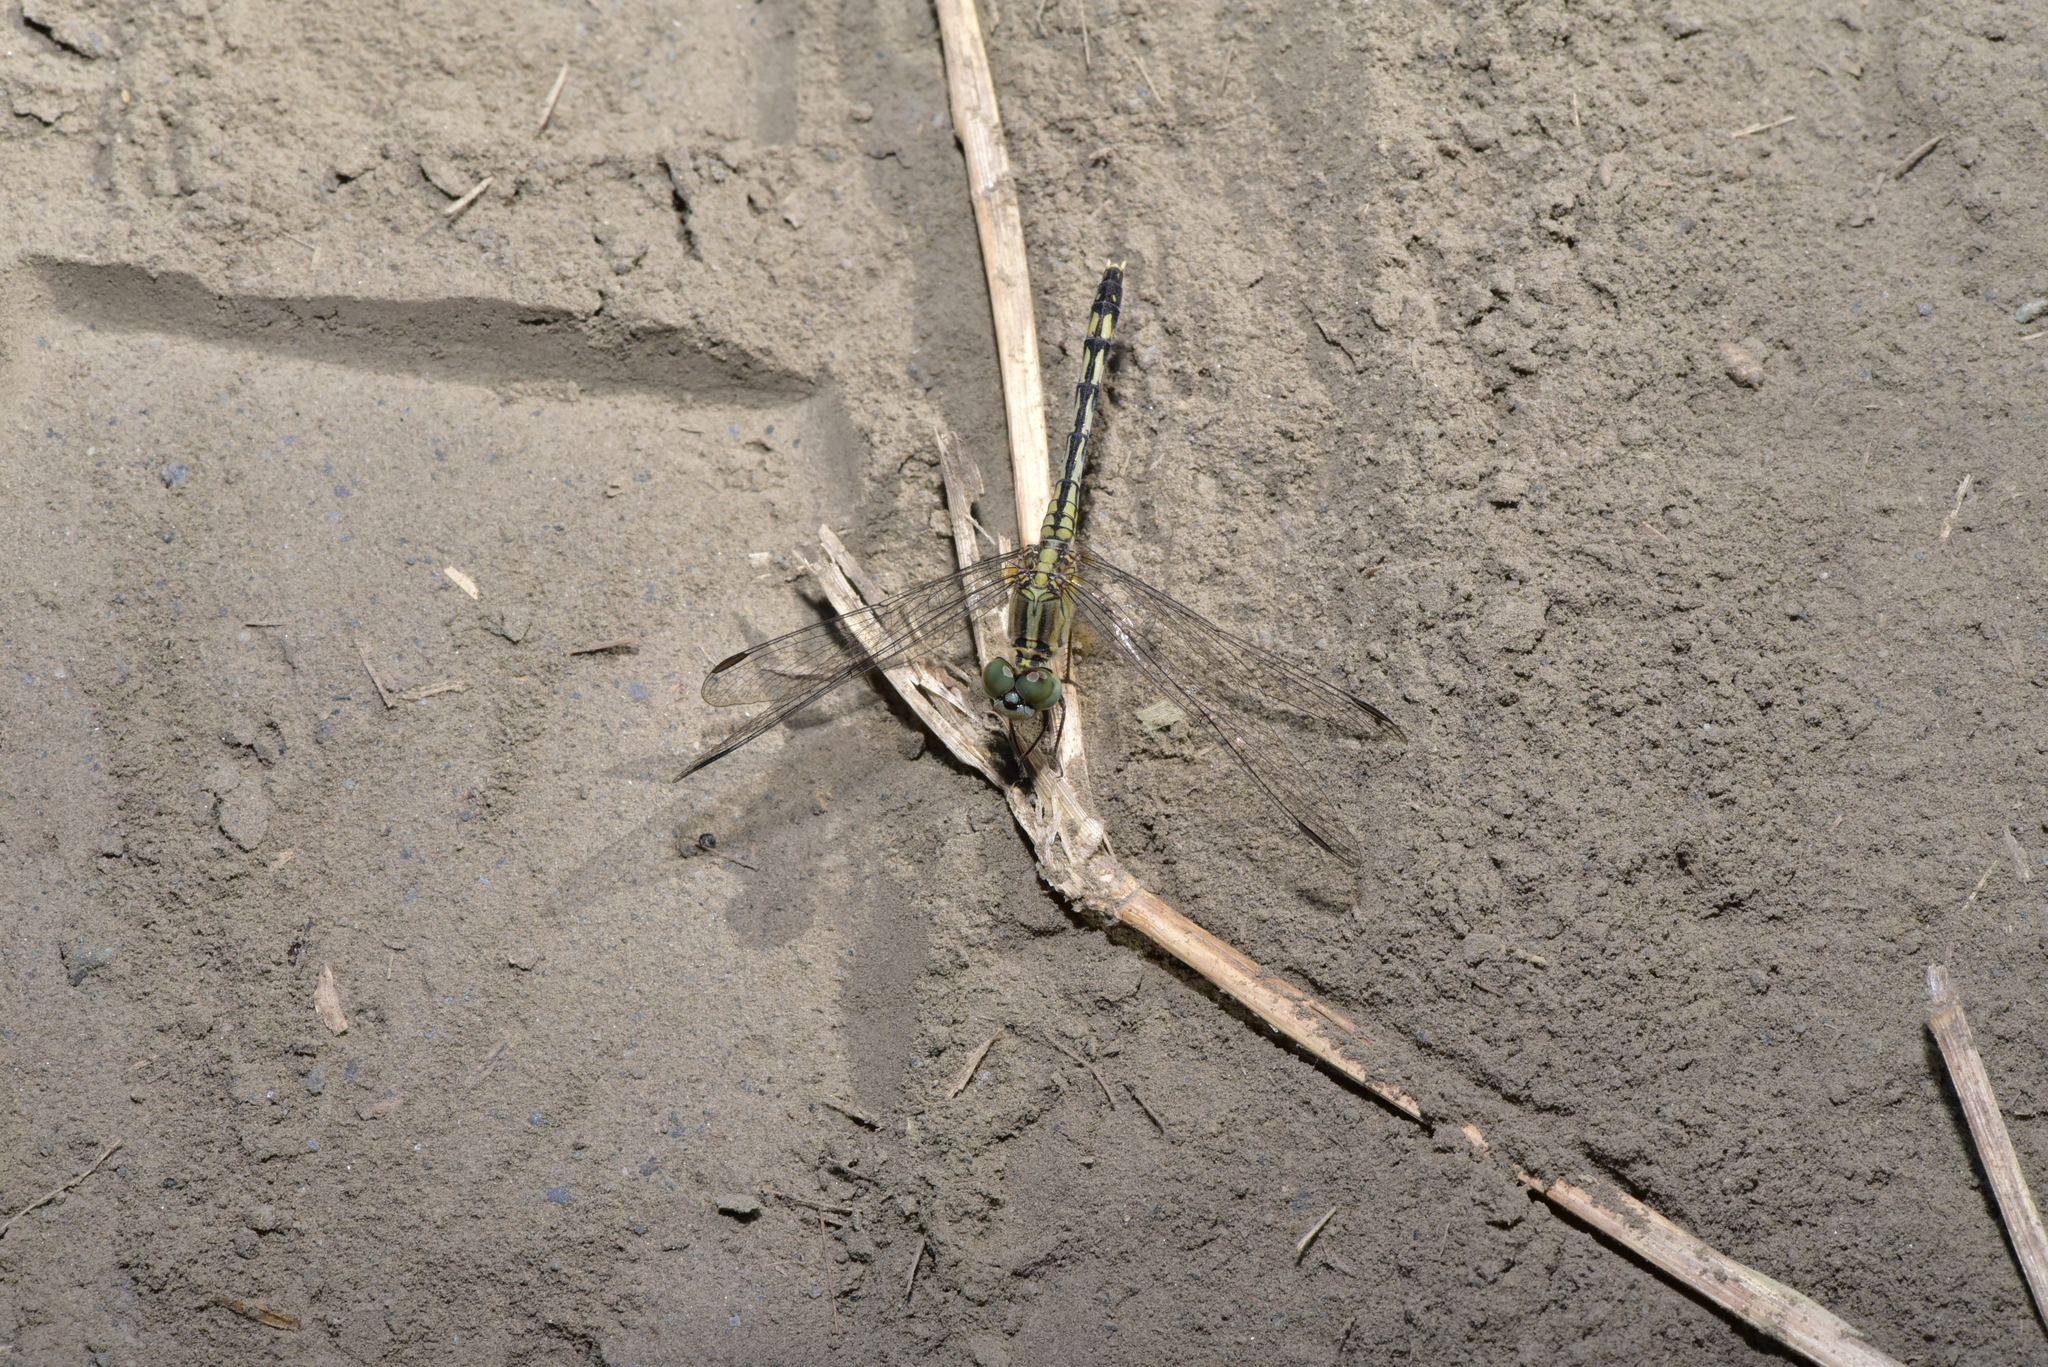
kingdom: Animalia
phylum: Arthropoda
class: Insecta
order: Odonata
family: Libellulidae
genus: Diplacodes
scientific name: Diplacodes trivialis
